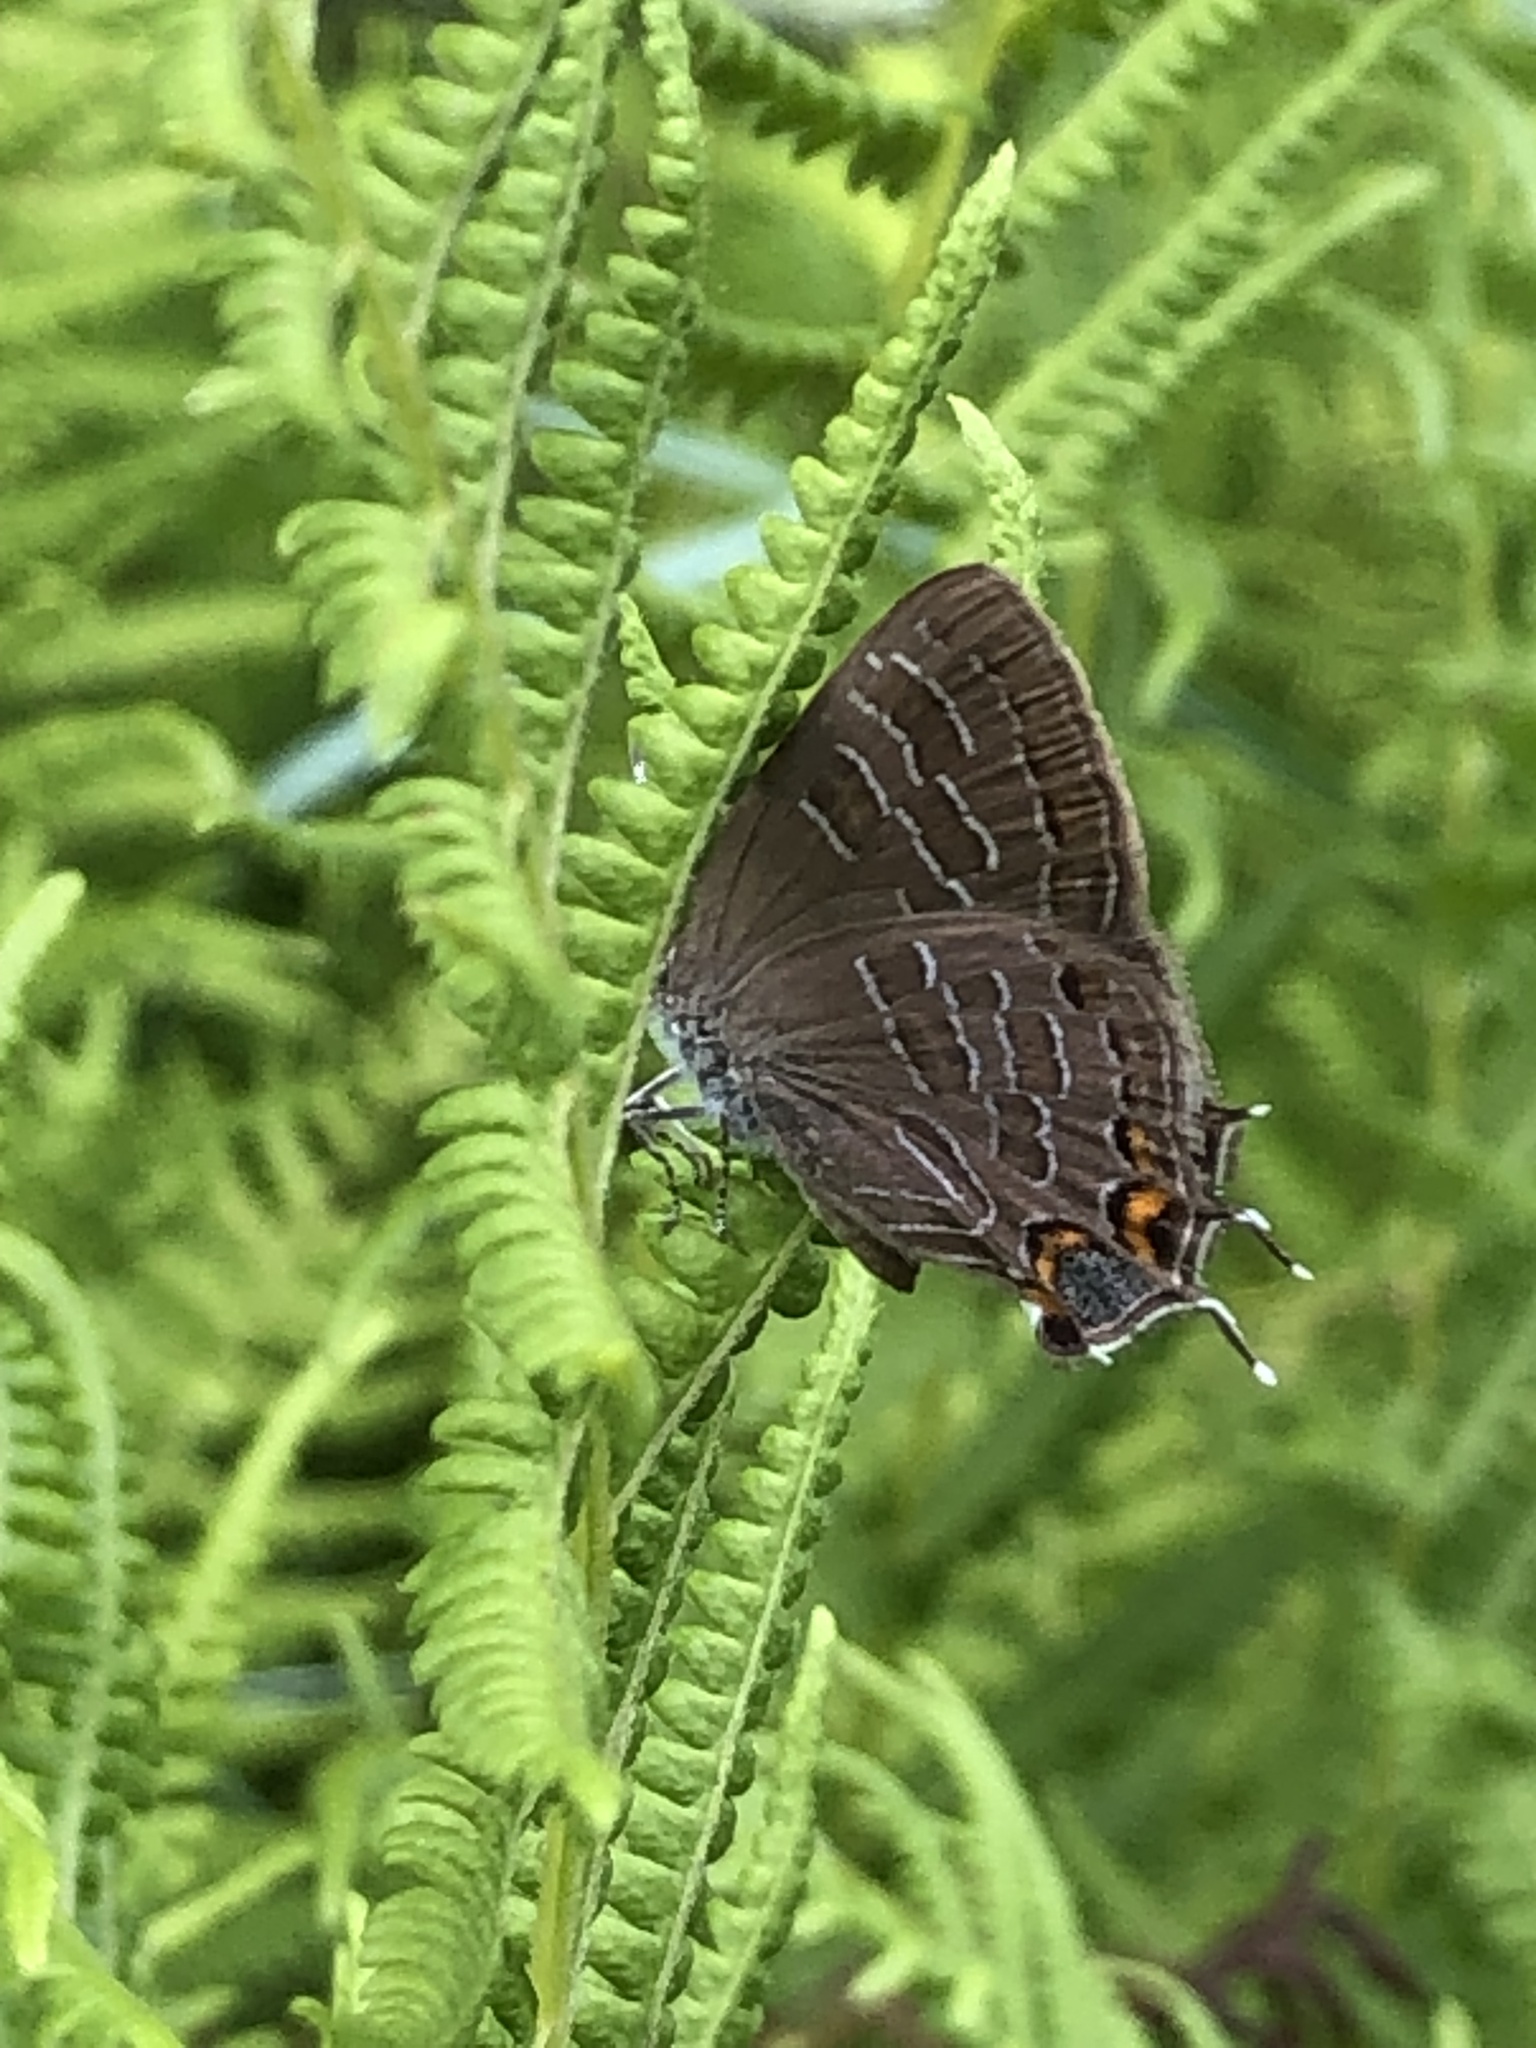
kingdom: Animalia
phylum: Arthropoda
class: Insecta
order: Lepidoptera
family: Lycaenidae
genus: Satyrium
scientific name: Satyrium liparops
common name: Striped hairstreak
